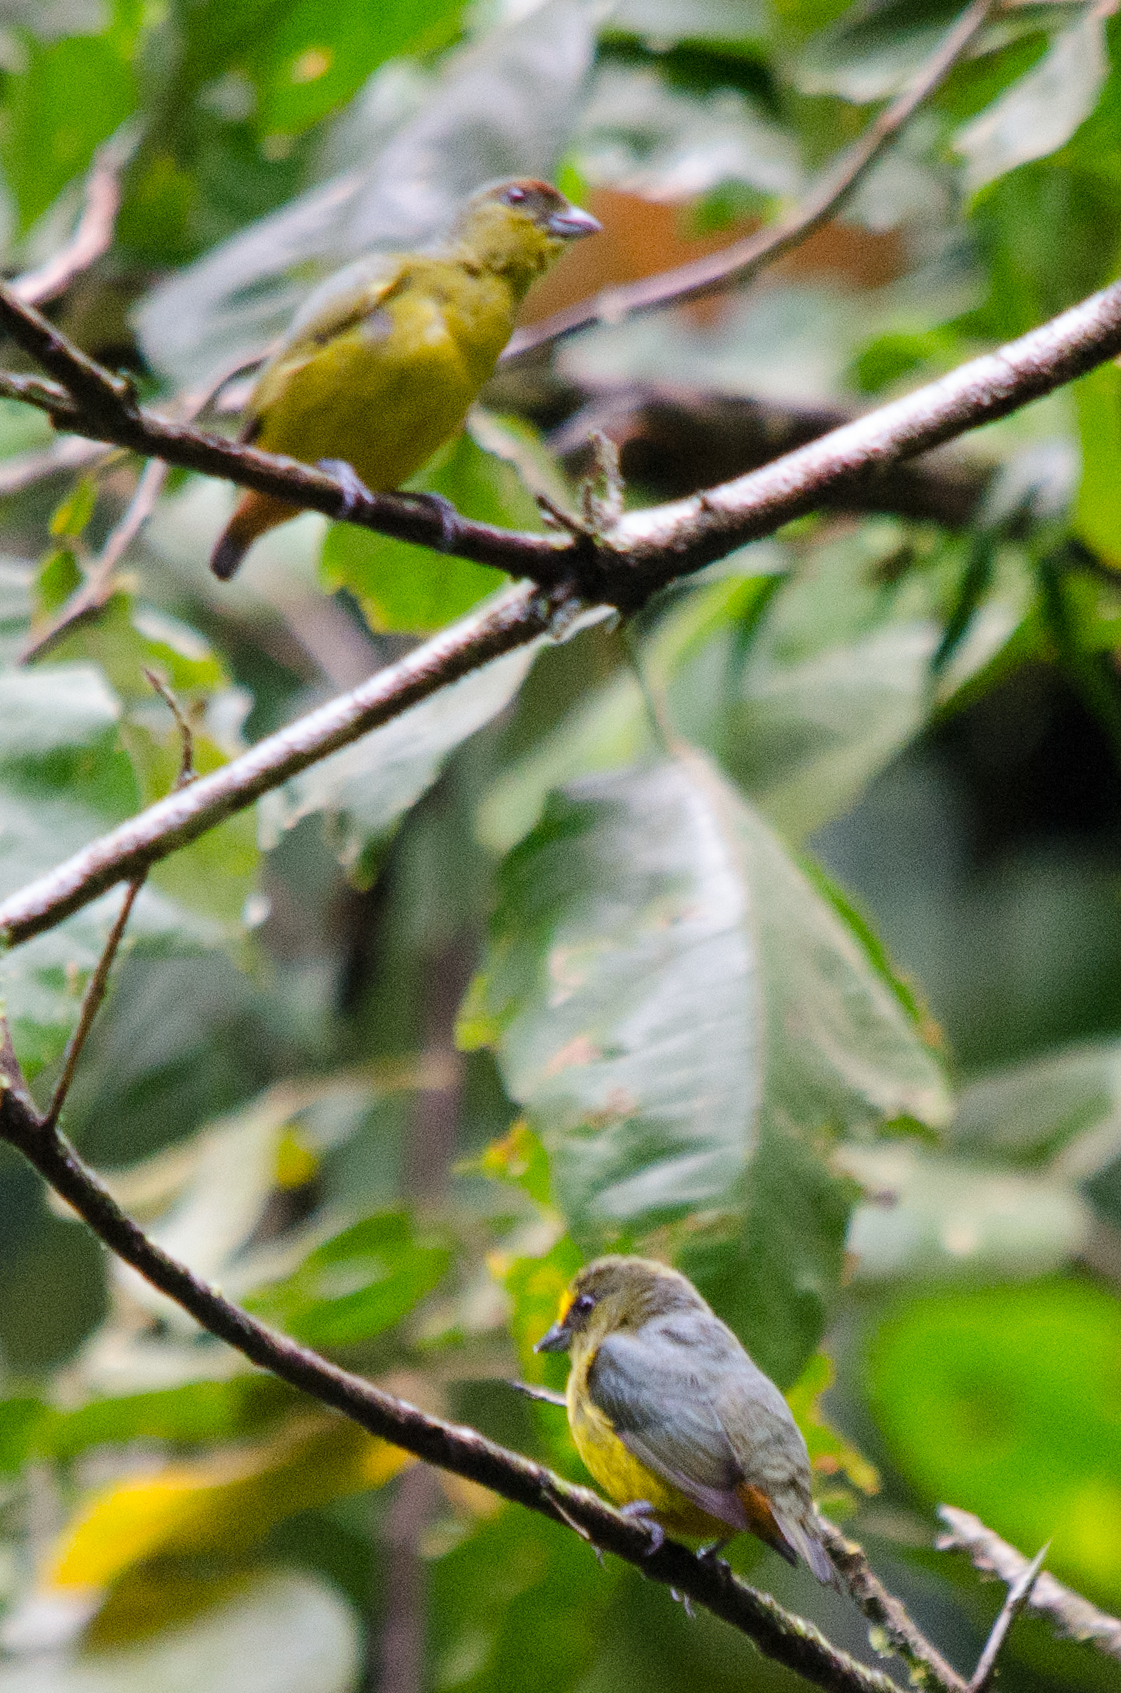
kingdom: Animalia
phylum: Chordata
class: Aves
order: Passeriformes
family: Fringillidae
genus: Euphonia
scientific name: Euphonia gouldi
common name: Olive-backed euphonia
